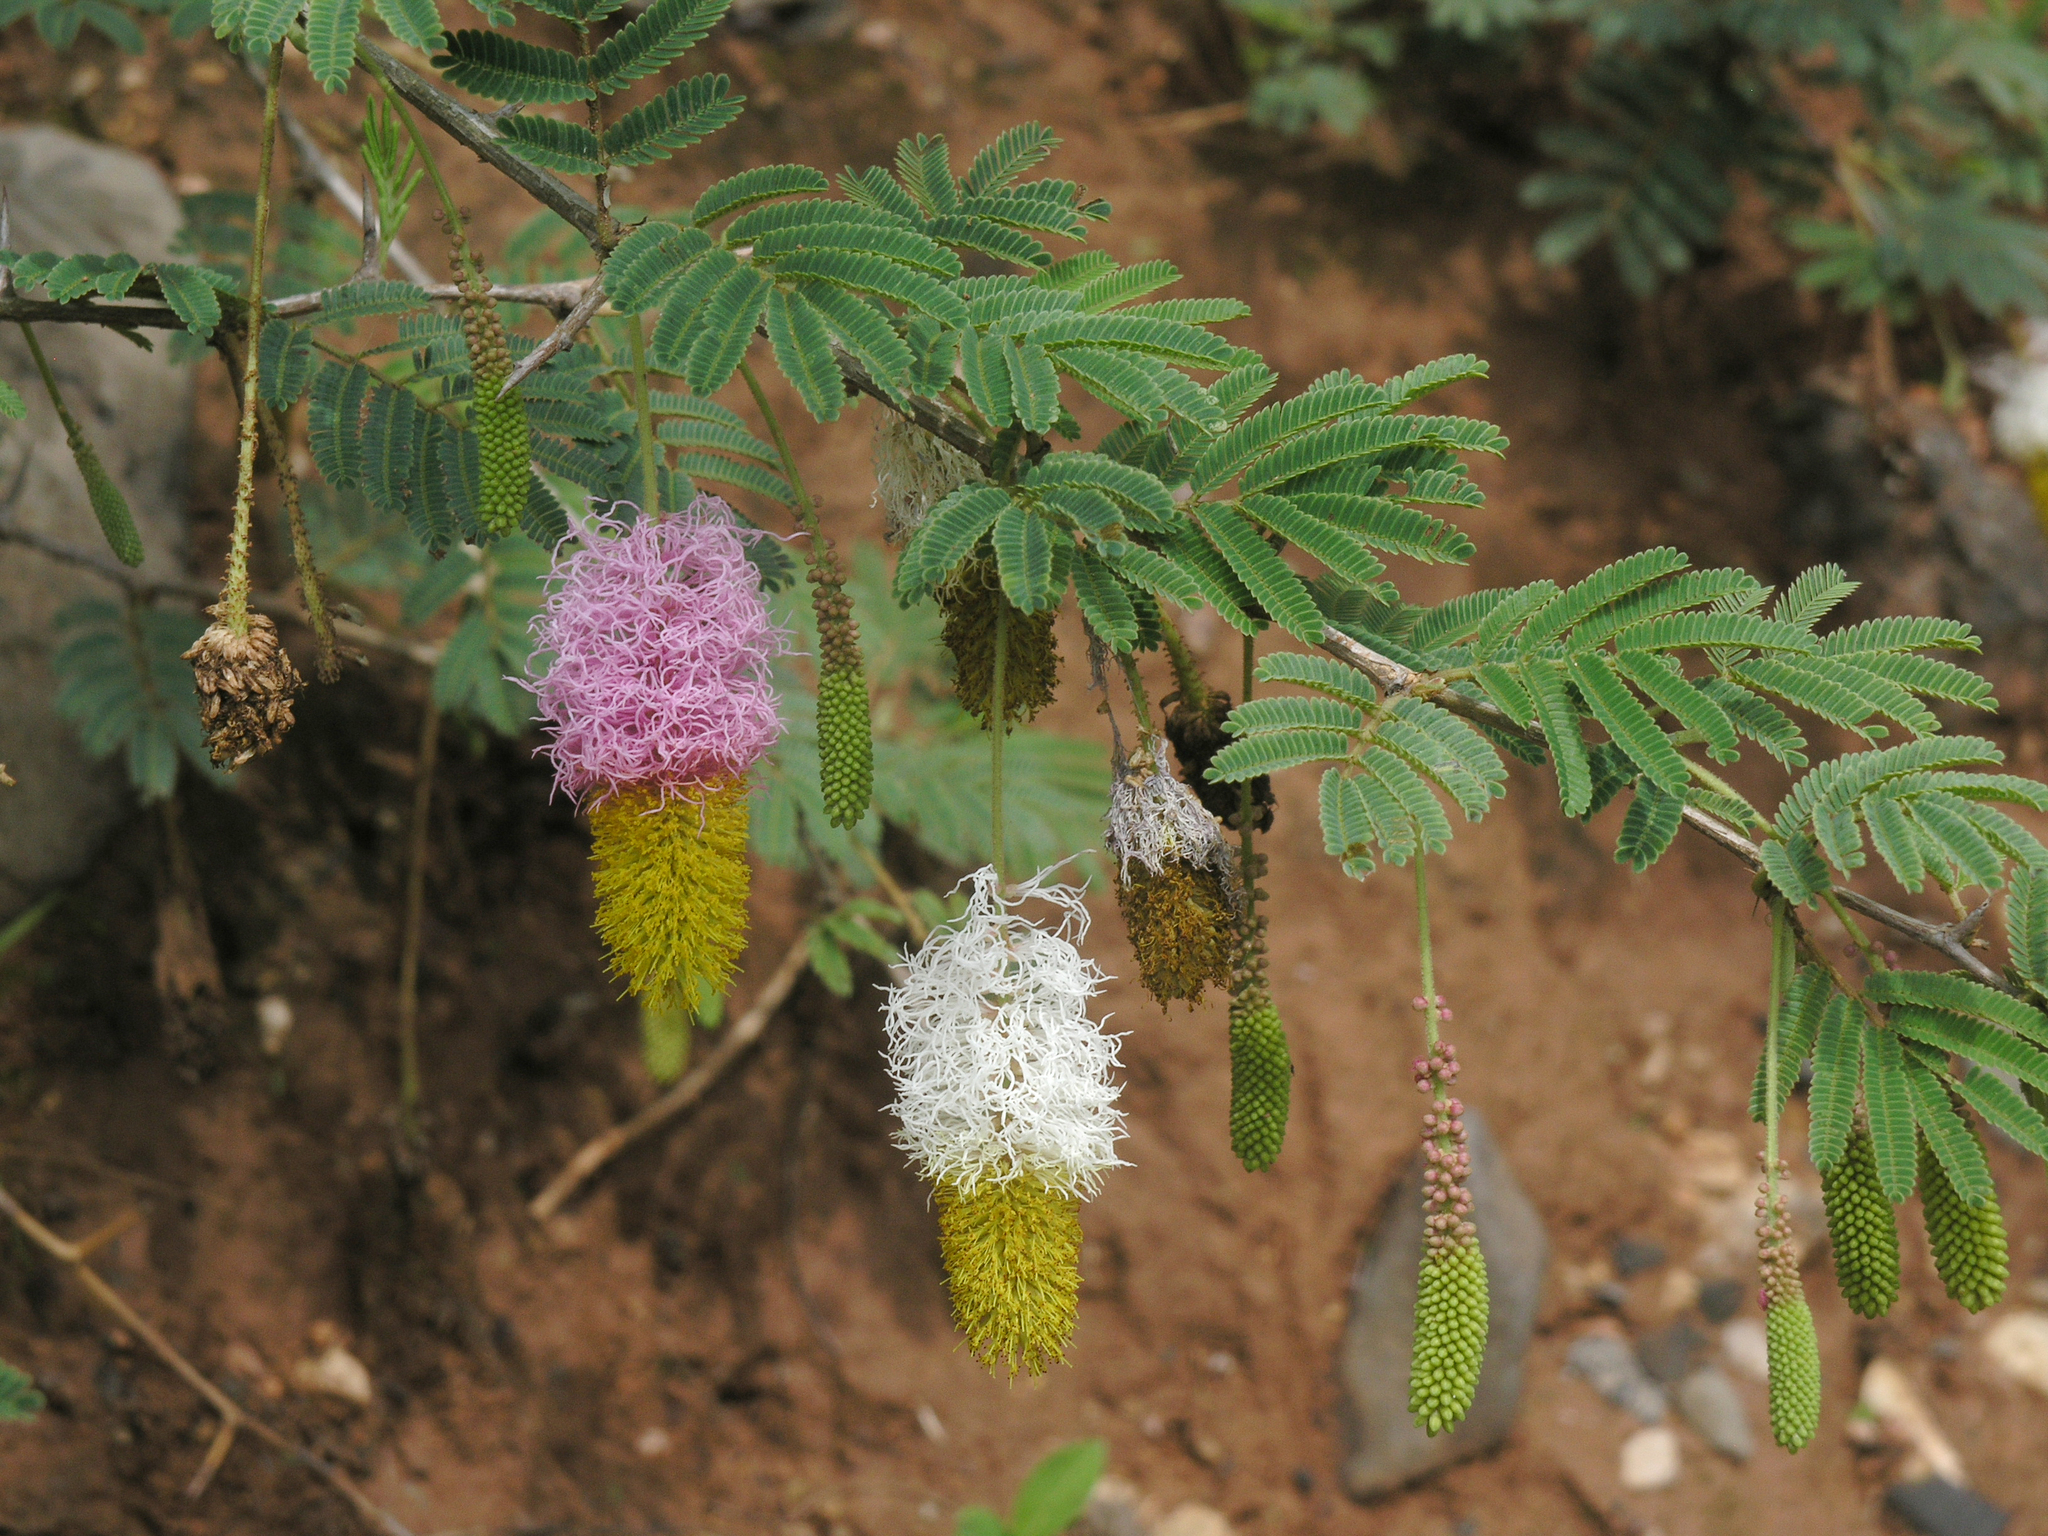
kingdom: Plantae
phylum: Tracheophyta
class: Magnoliopsida
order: Fabales
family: Fabaceae
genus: Dichrostachys
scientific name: Dichrostachys cinerea
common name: Sicklebush
